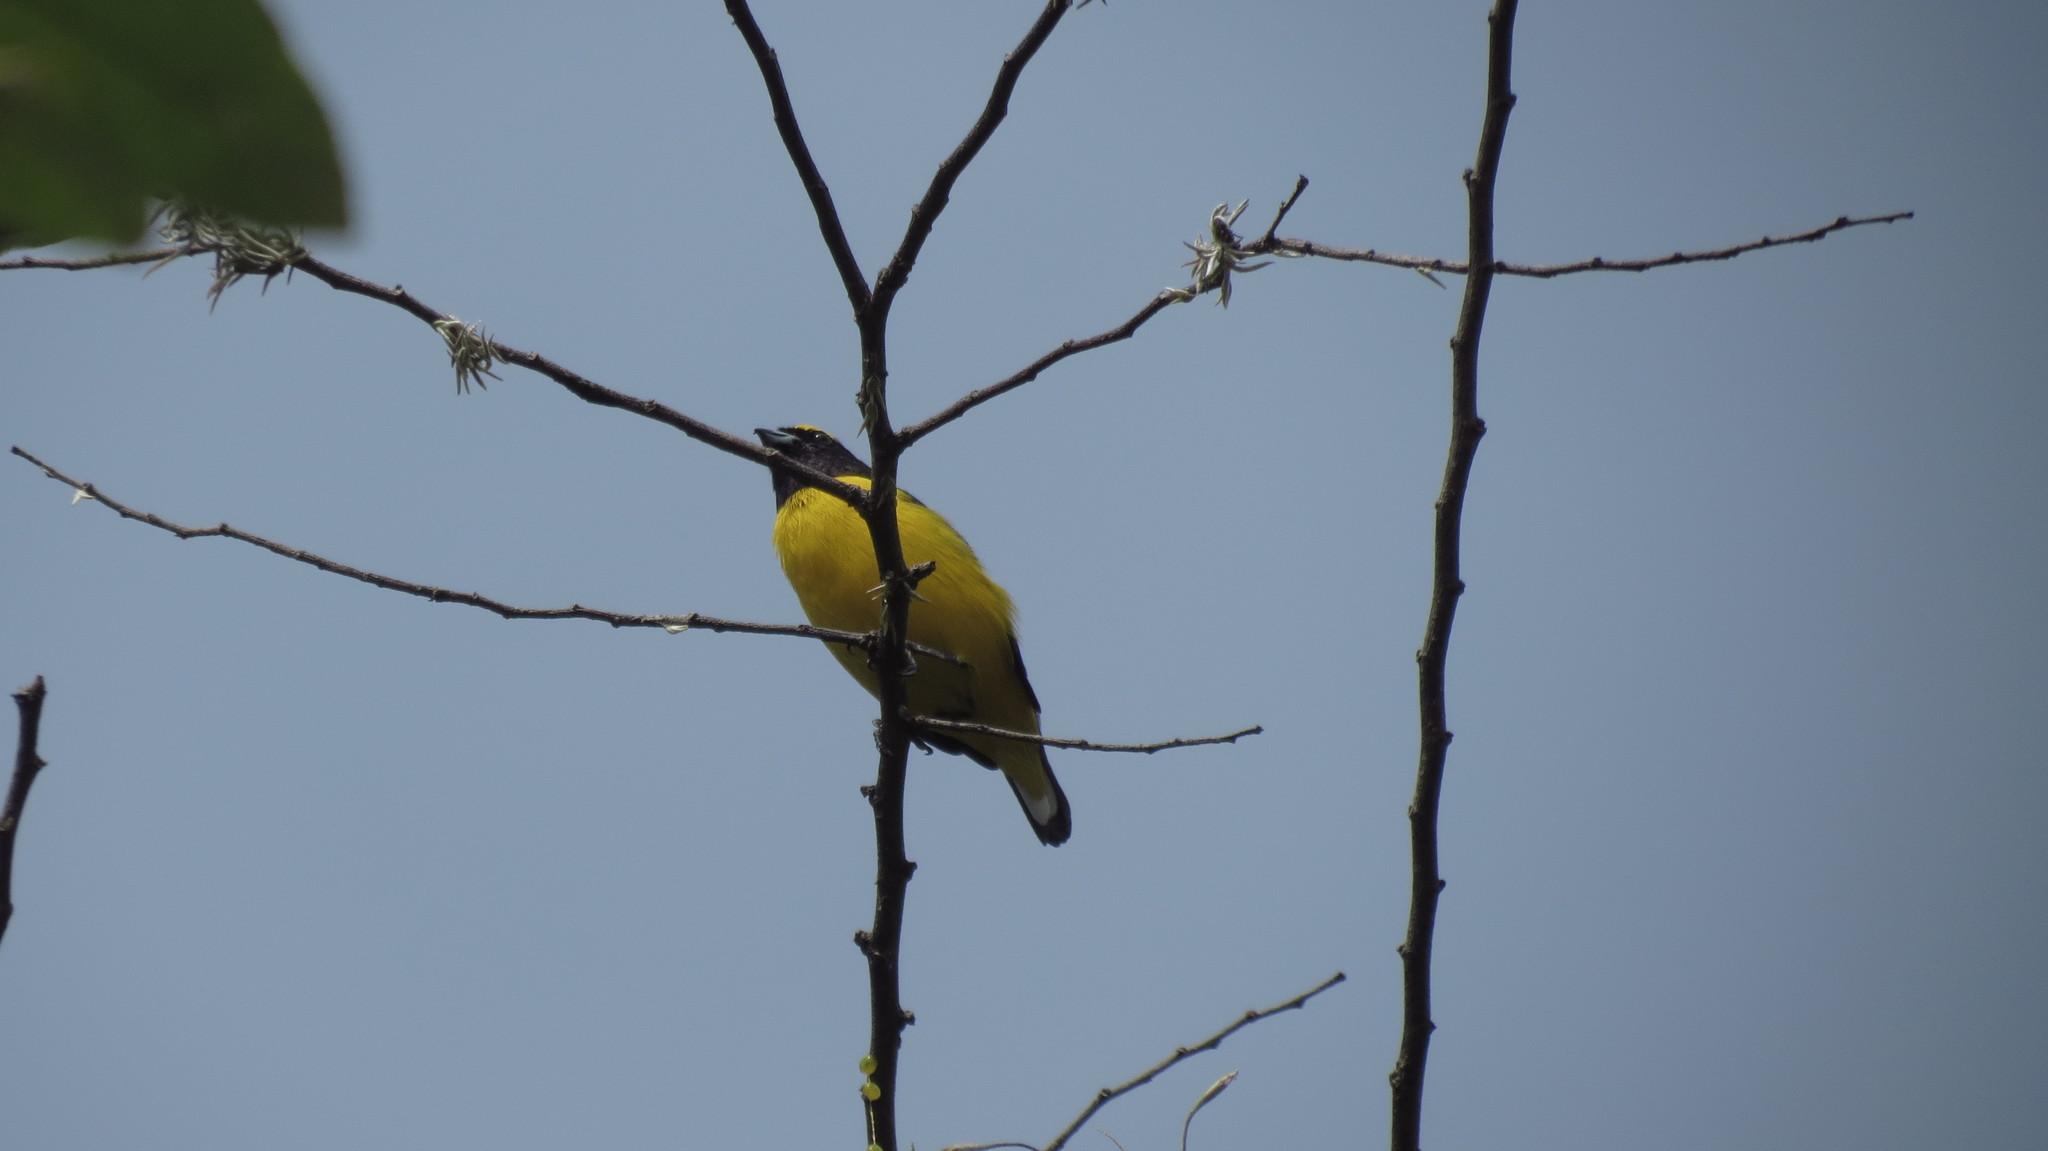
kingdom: Animalia
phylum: Chordata
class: Aves
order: Passeriformes
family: Fringillidae
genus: Euphonia
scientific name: Euphonia affinis
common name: Scrub euphonia
